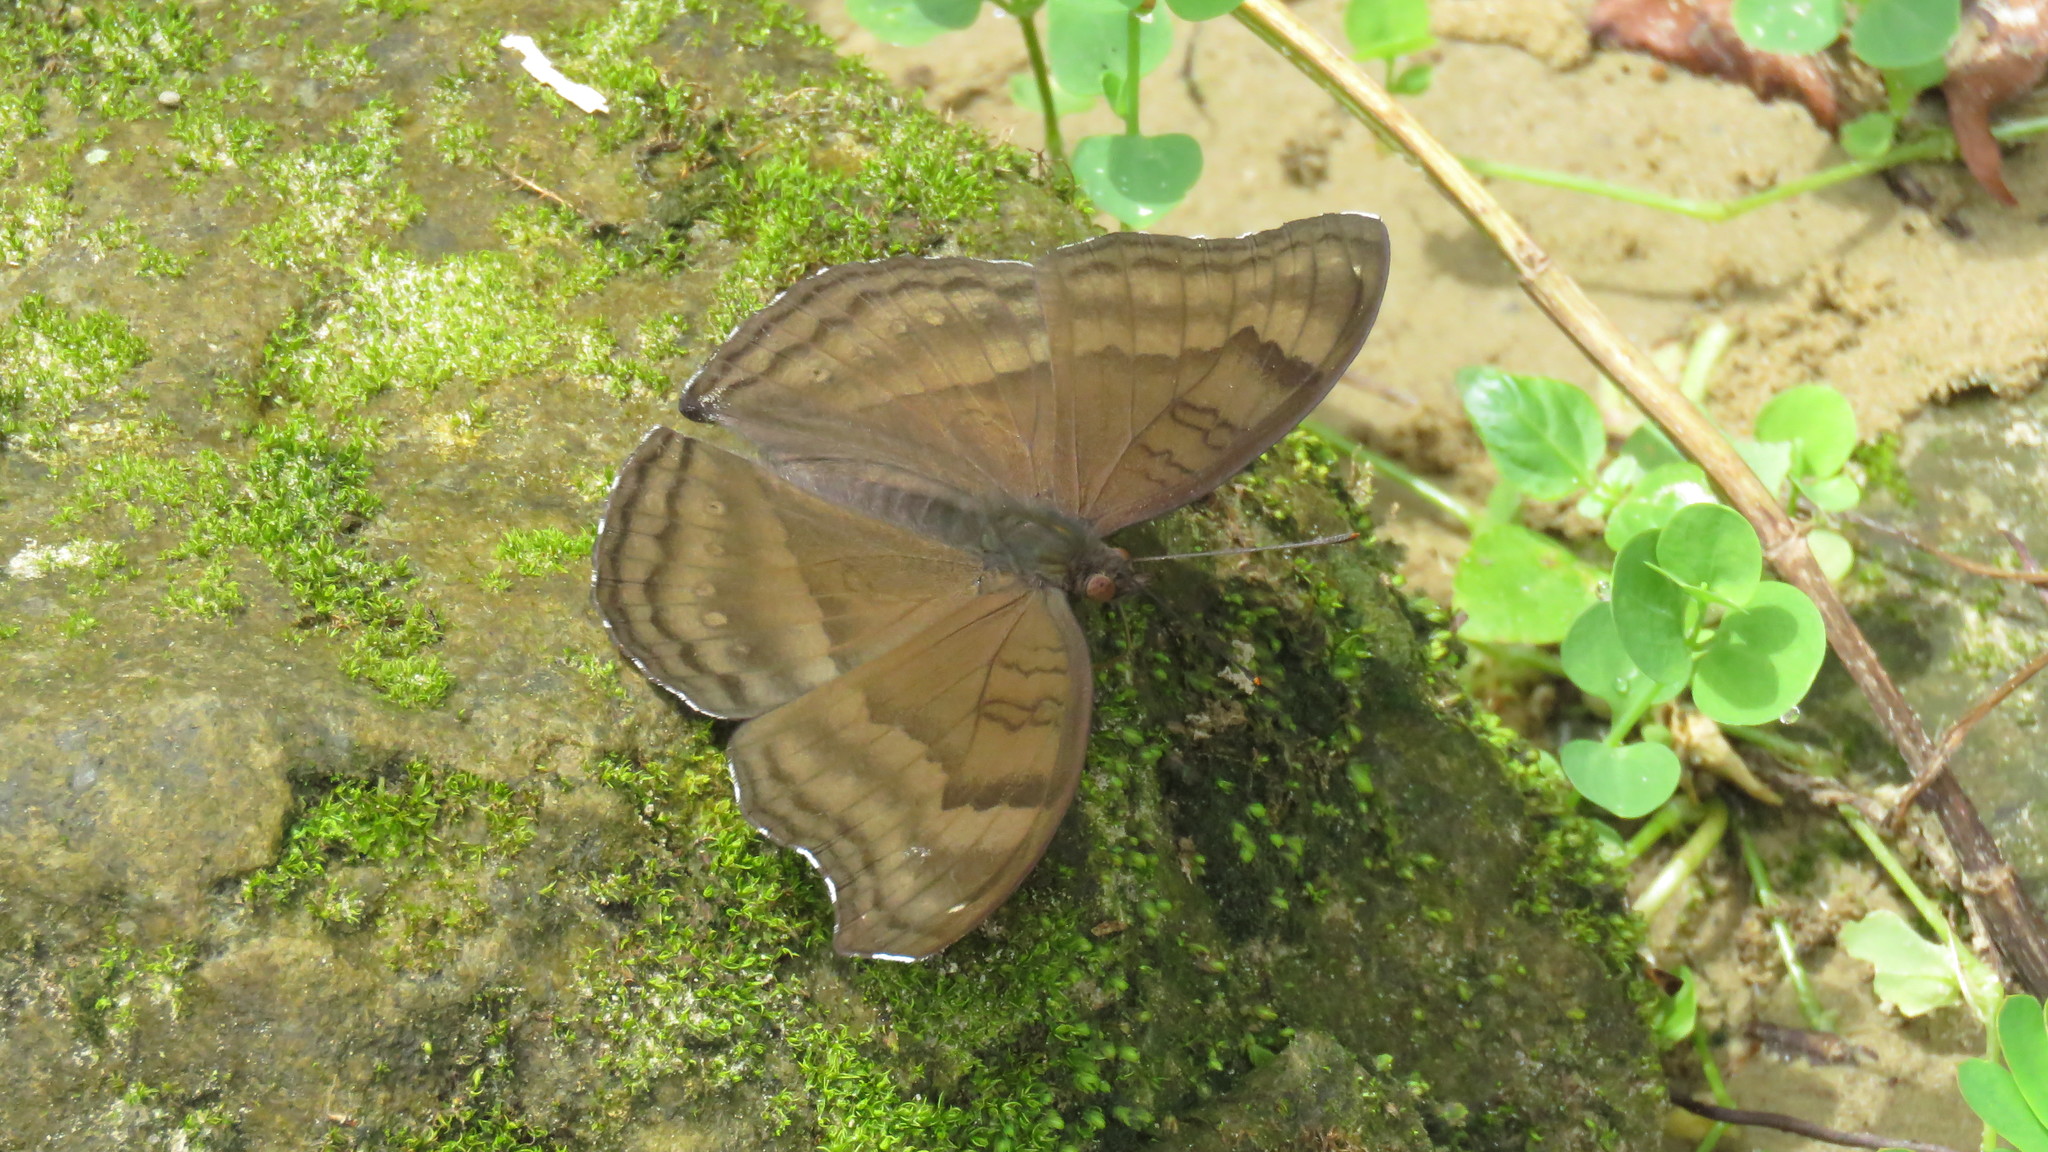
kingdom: Animalia
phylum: Arthropoda
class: Insecta
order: Lepidoptera
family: Nymphalidae
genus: Junonia
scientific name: Junonia iphita
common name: Chocolate pansy
